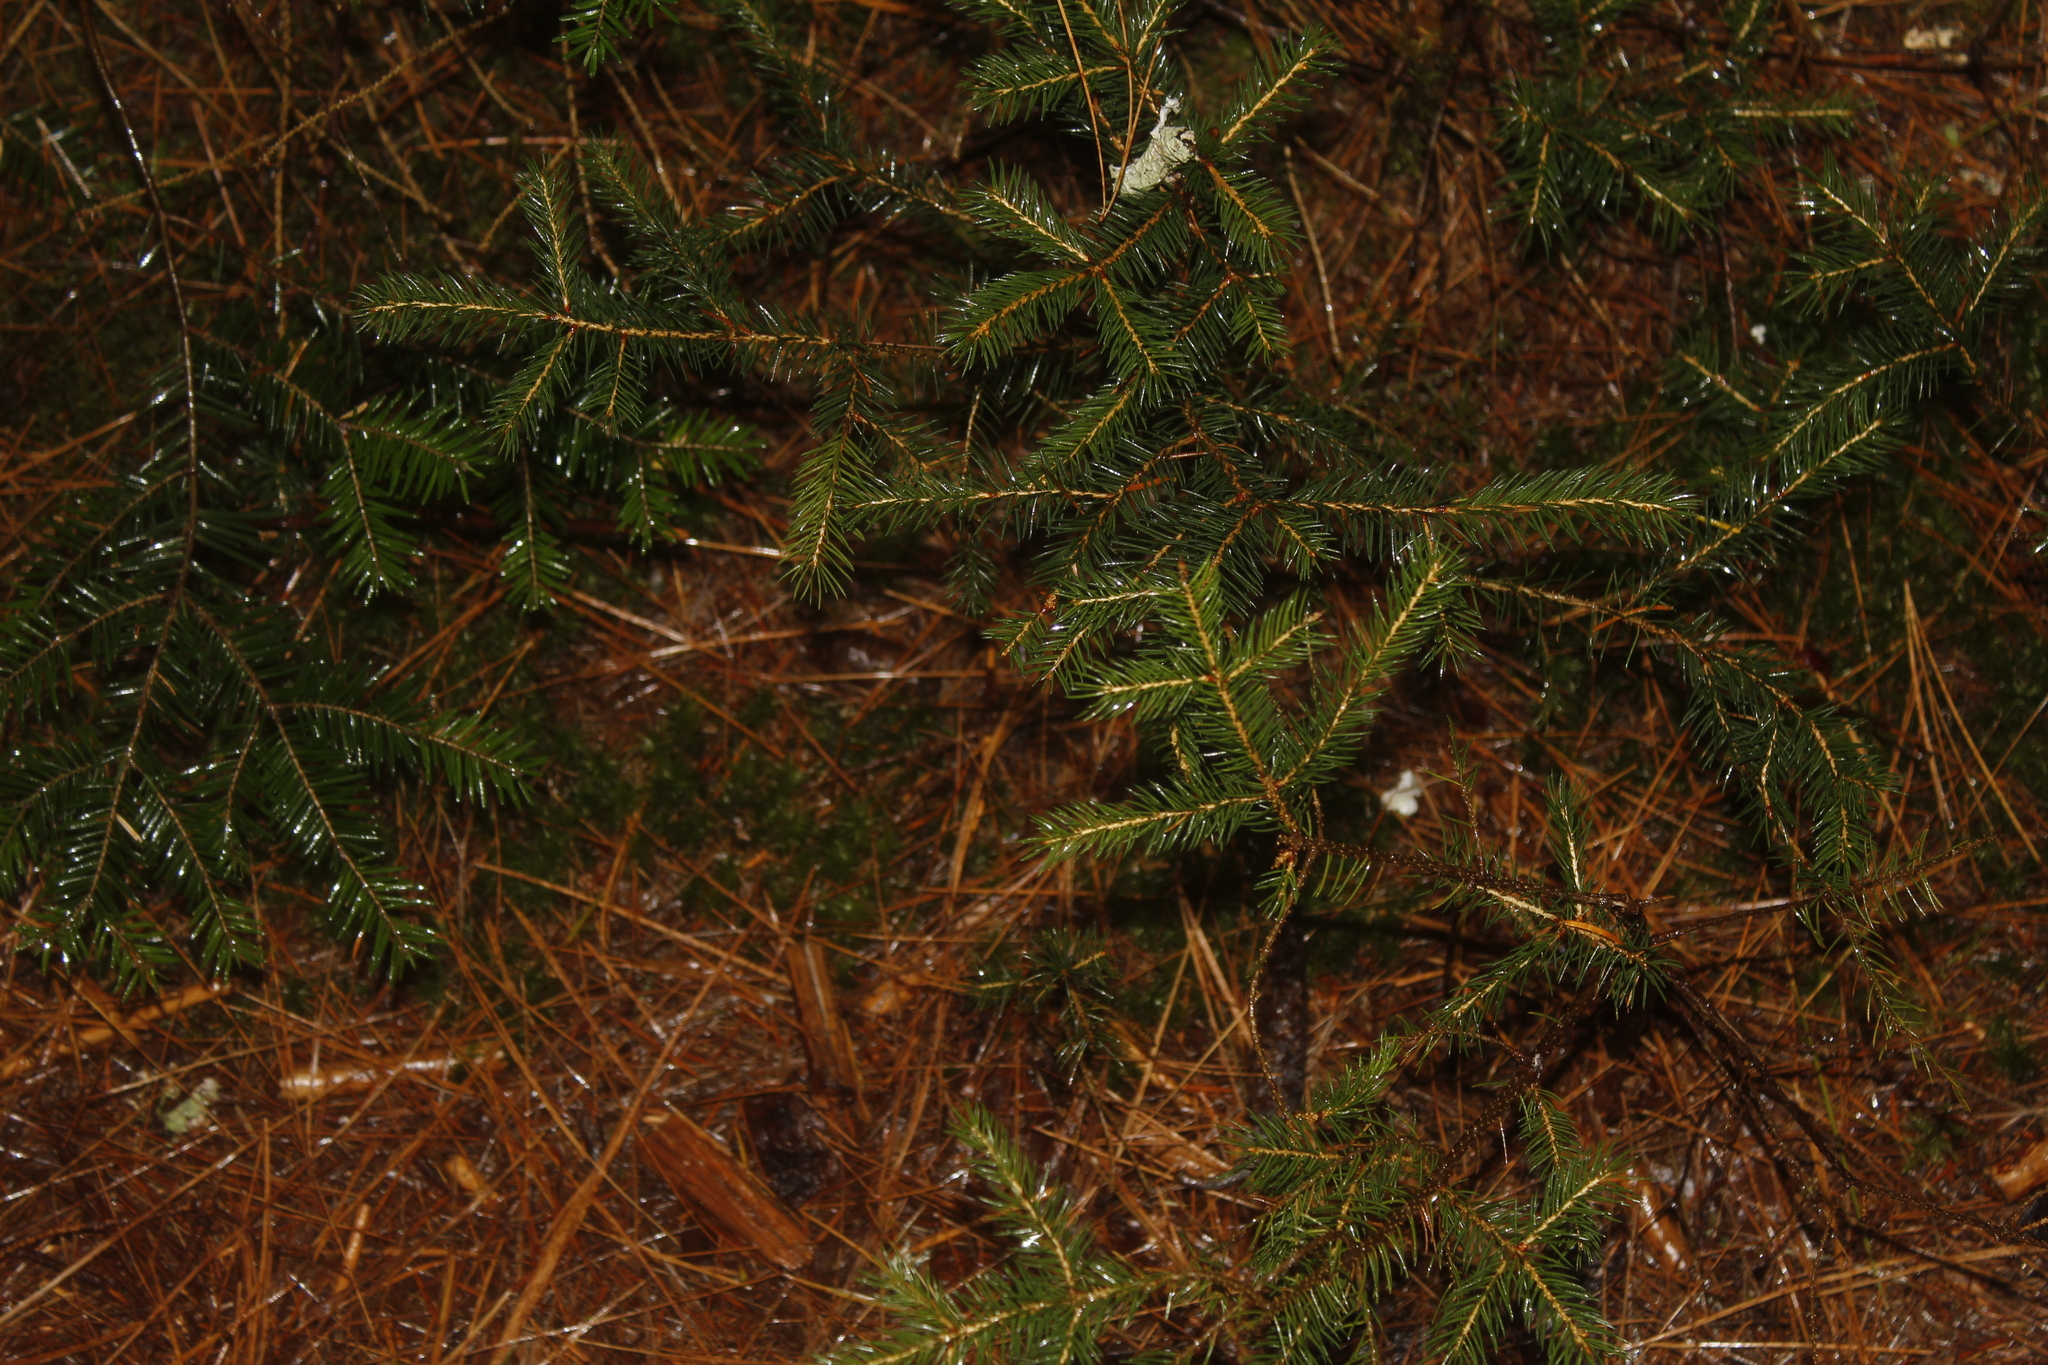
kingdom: Plantae
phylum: Tracheophyta
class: Pinopsida
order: Pinales
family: Pinaceae
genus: Picea
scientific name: Picea rubens
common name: Red spruce
